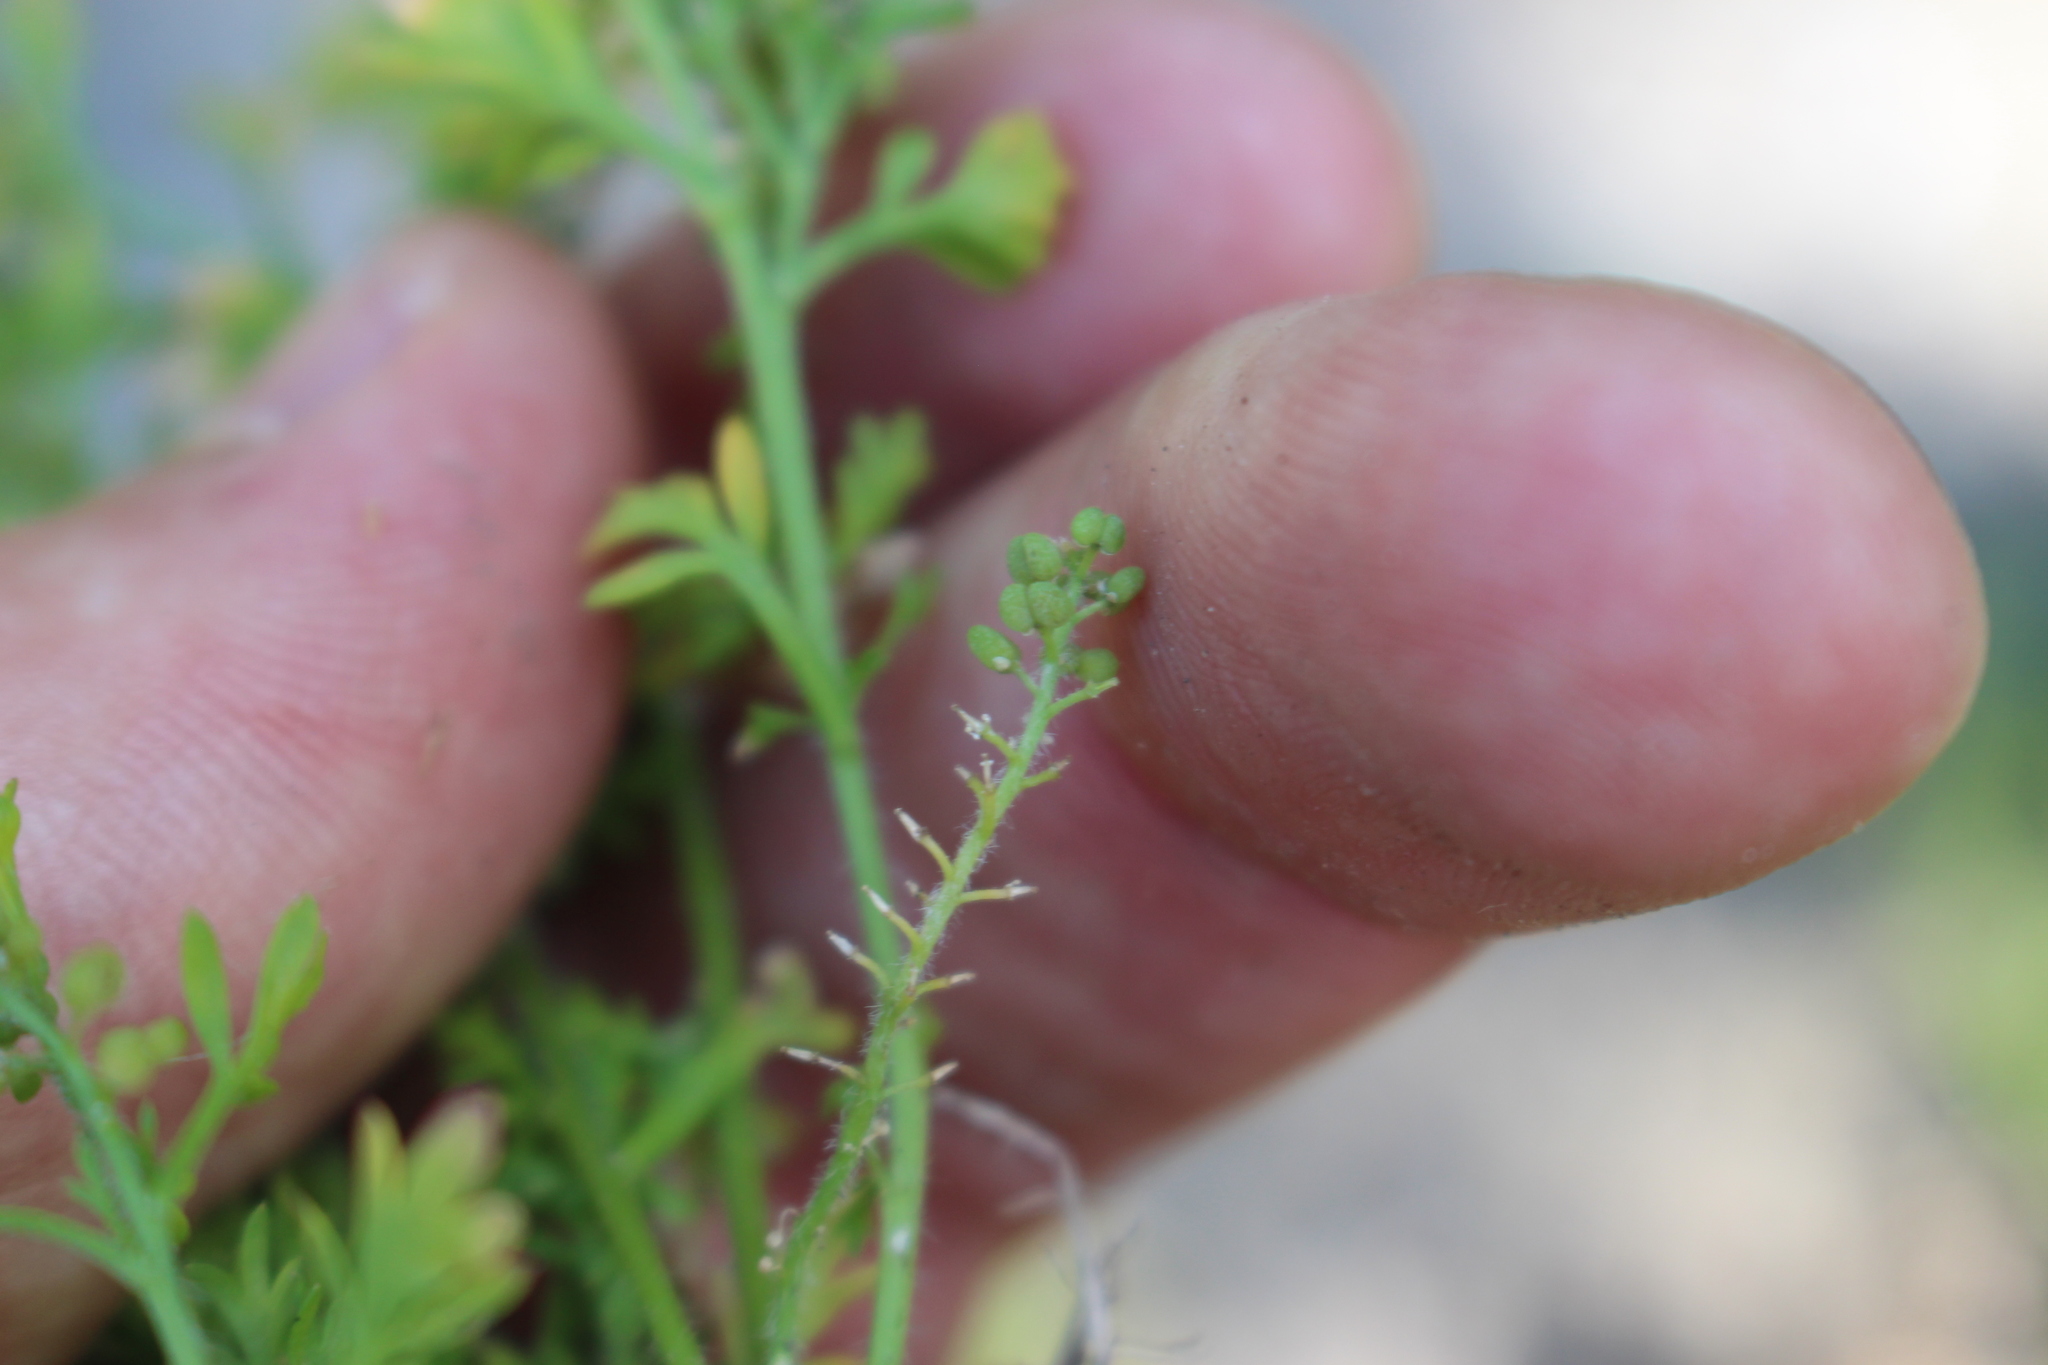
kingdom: Plantae
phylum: Tracheophyta
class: Magnoliopsida
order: Brassicales
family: Brassicaceae
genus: Lepidium
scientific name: Lepidium didymum
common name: Lesser swinecress
